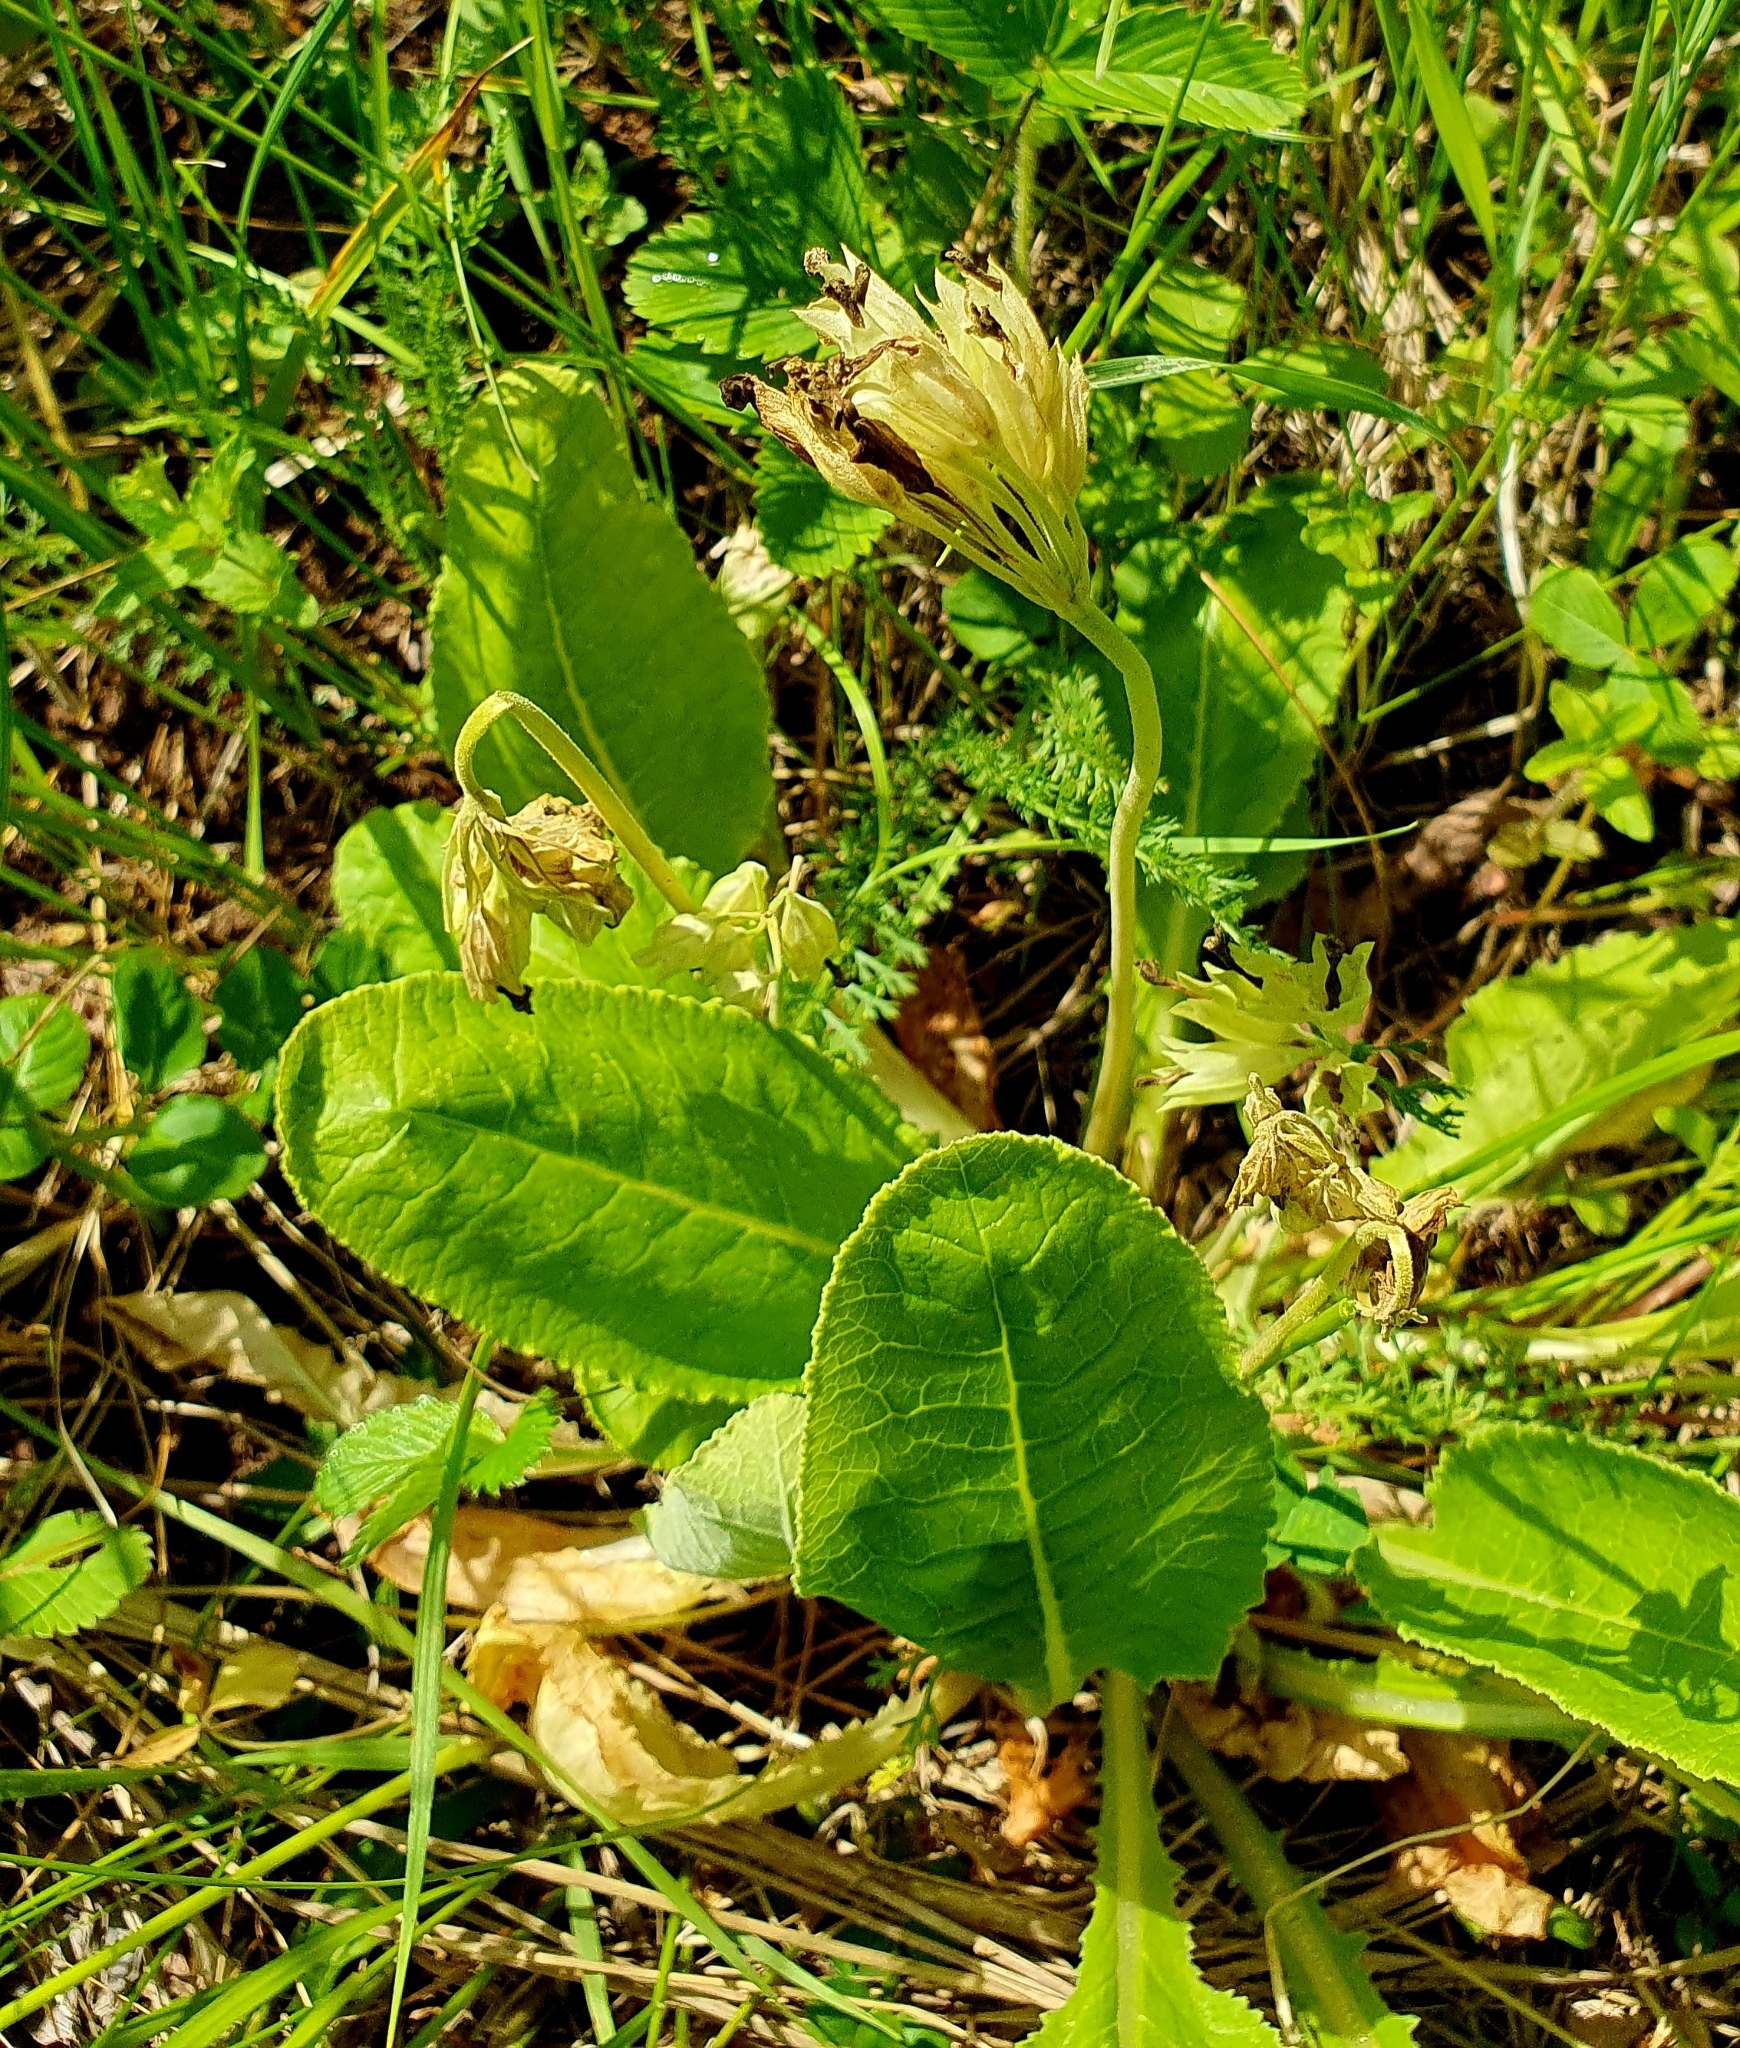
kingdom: Plantae
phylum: Tracheophyta
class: Magnoliopsida
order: Ericales
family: Primulaceae
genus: Primula
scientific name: Primula veris
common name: Cowslip
